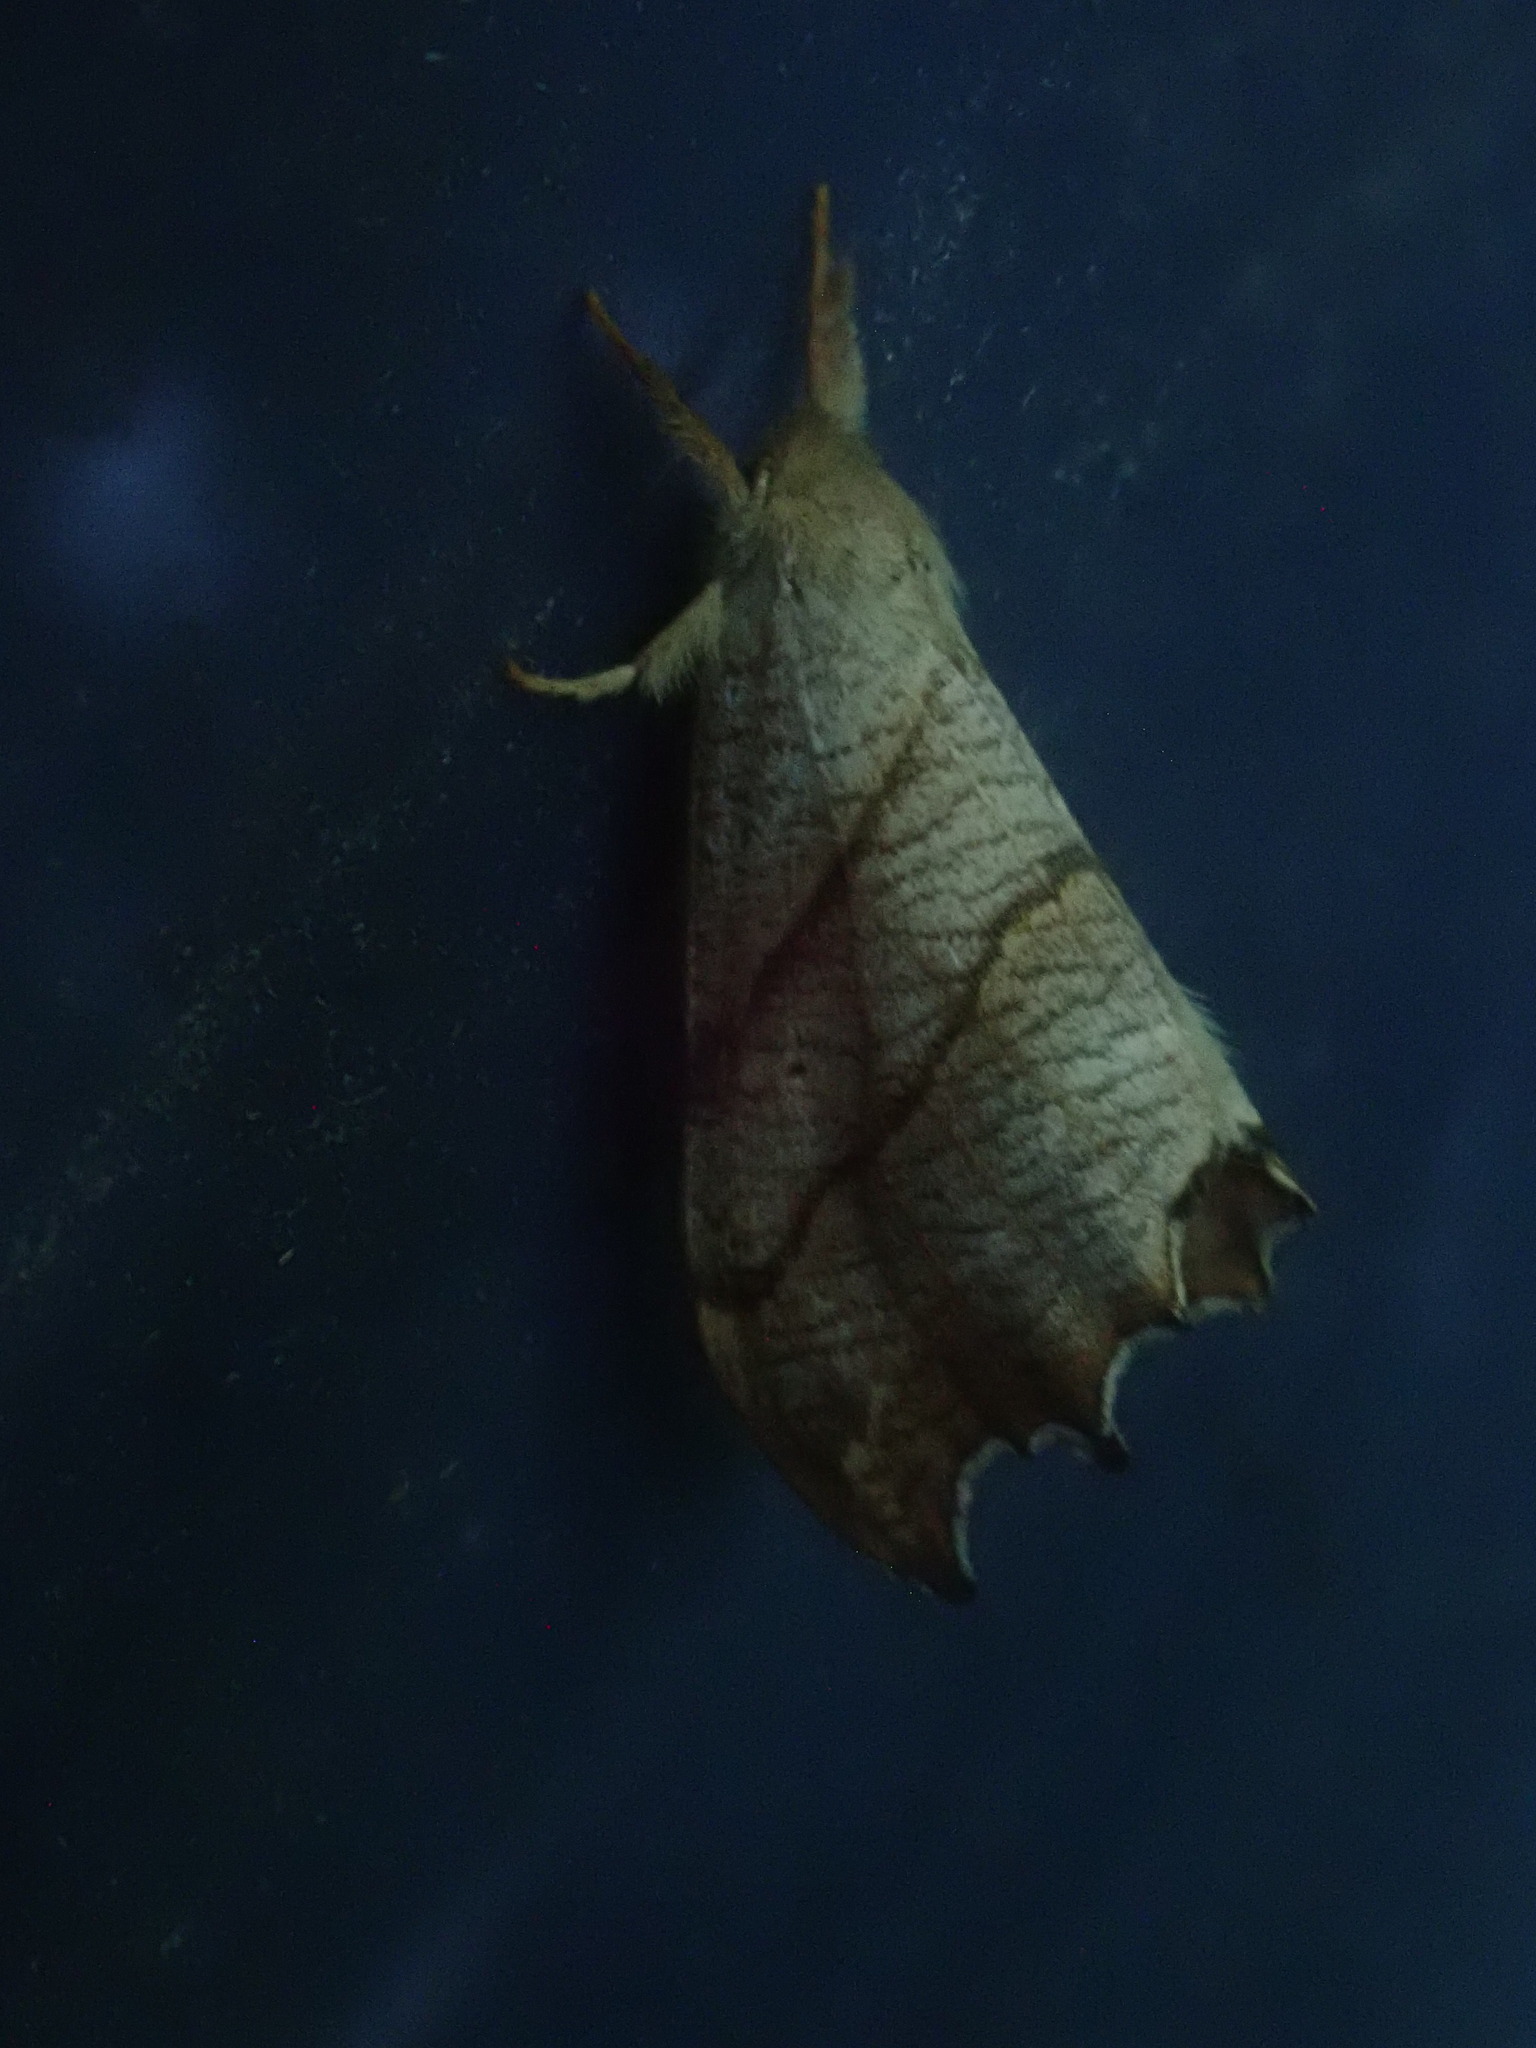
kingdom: Animalia
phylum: Arthropoda
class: Insecta
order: Lepidoptera
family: Drepanidae
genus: Falcaria
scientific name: Falcaria bilineata
